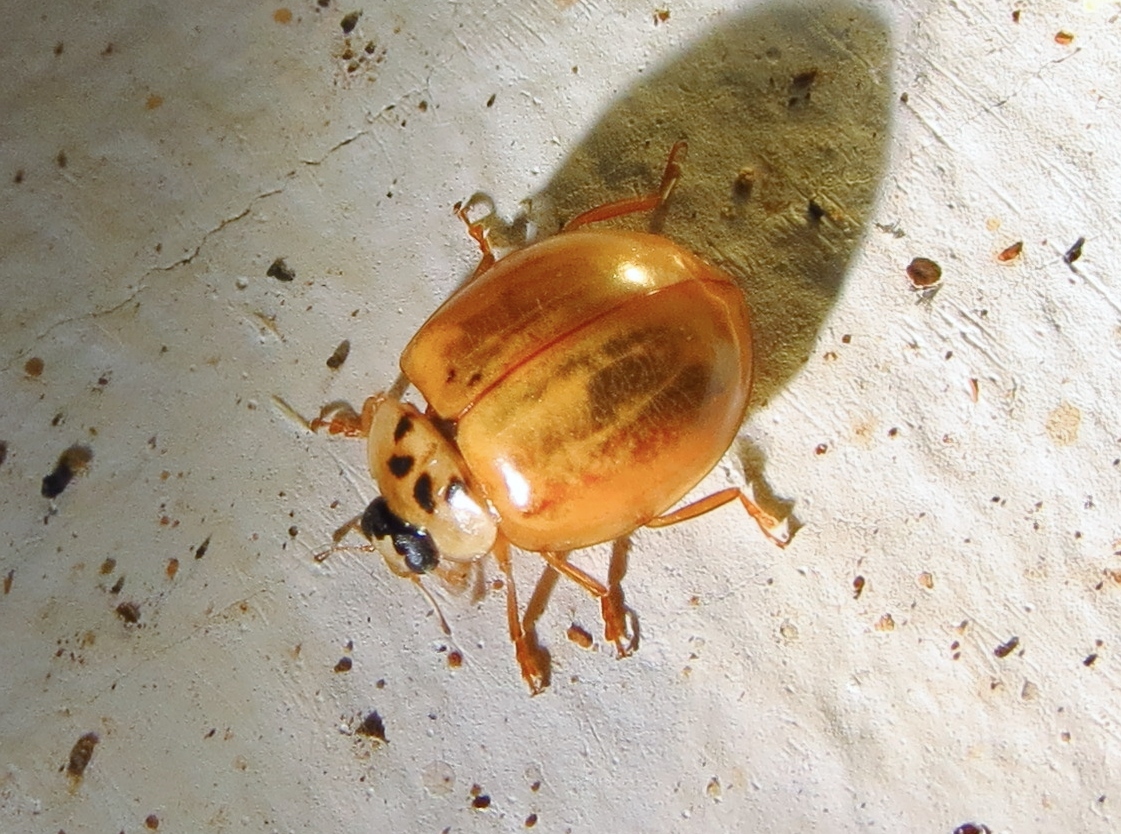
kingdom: Animalia
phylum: Arthropoda
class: Insecta
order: Coleoptera
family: Coccinellidae
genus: Harmonia
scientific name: Harmonia axyridis
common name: Harlequin ladybird
